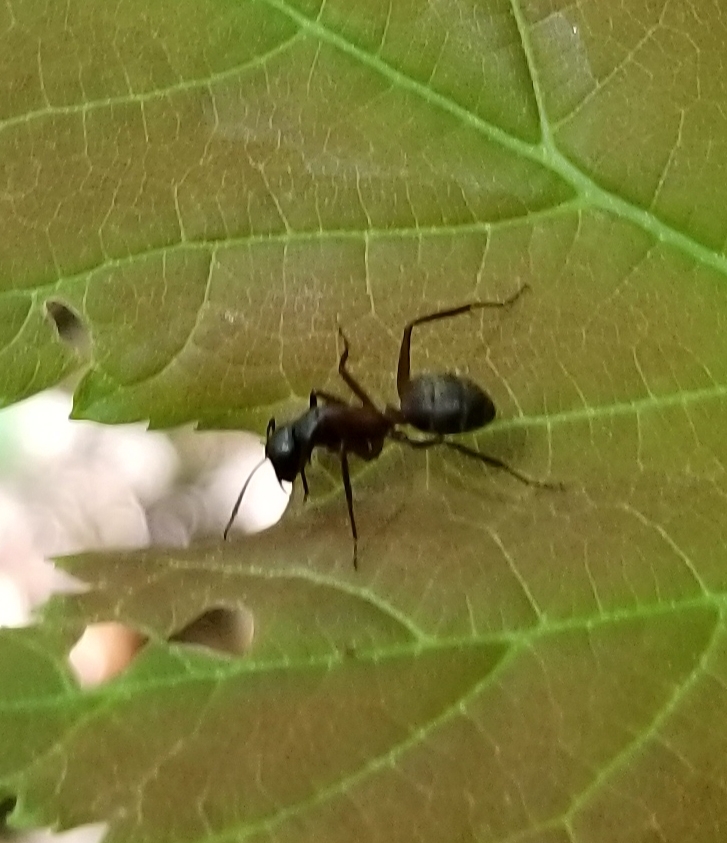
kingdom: Animalia
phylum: Arthropoda
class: Insecta
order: Hymenoptera
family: Formicidae
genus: Camponotus
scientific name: Camponotus chromaiodes
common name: Red carpenter ant
